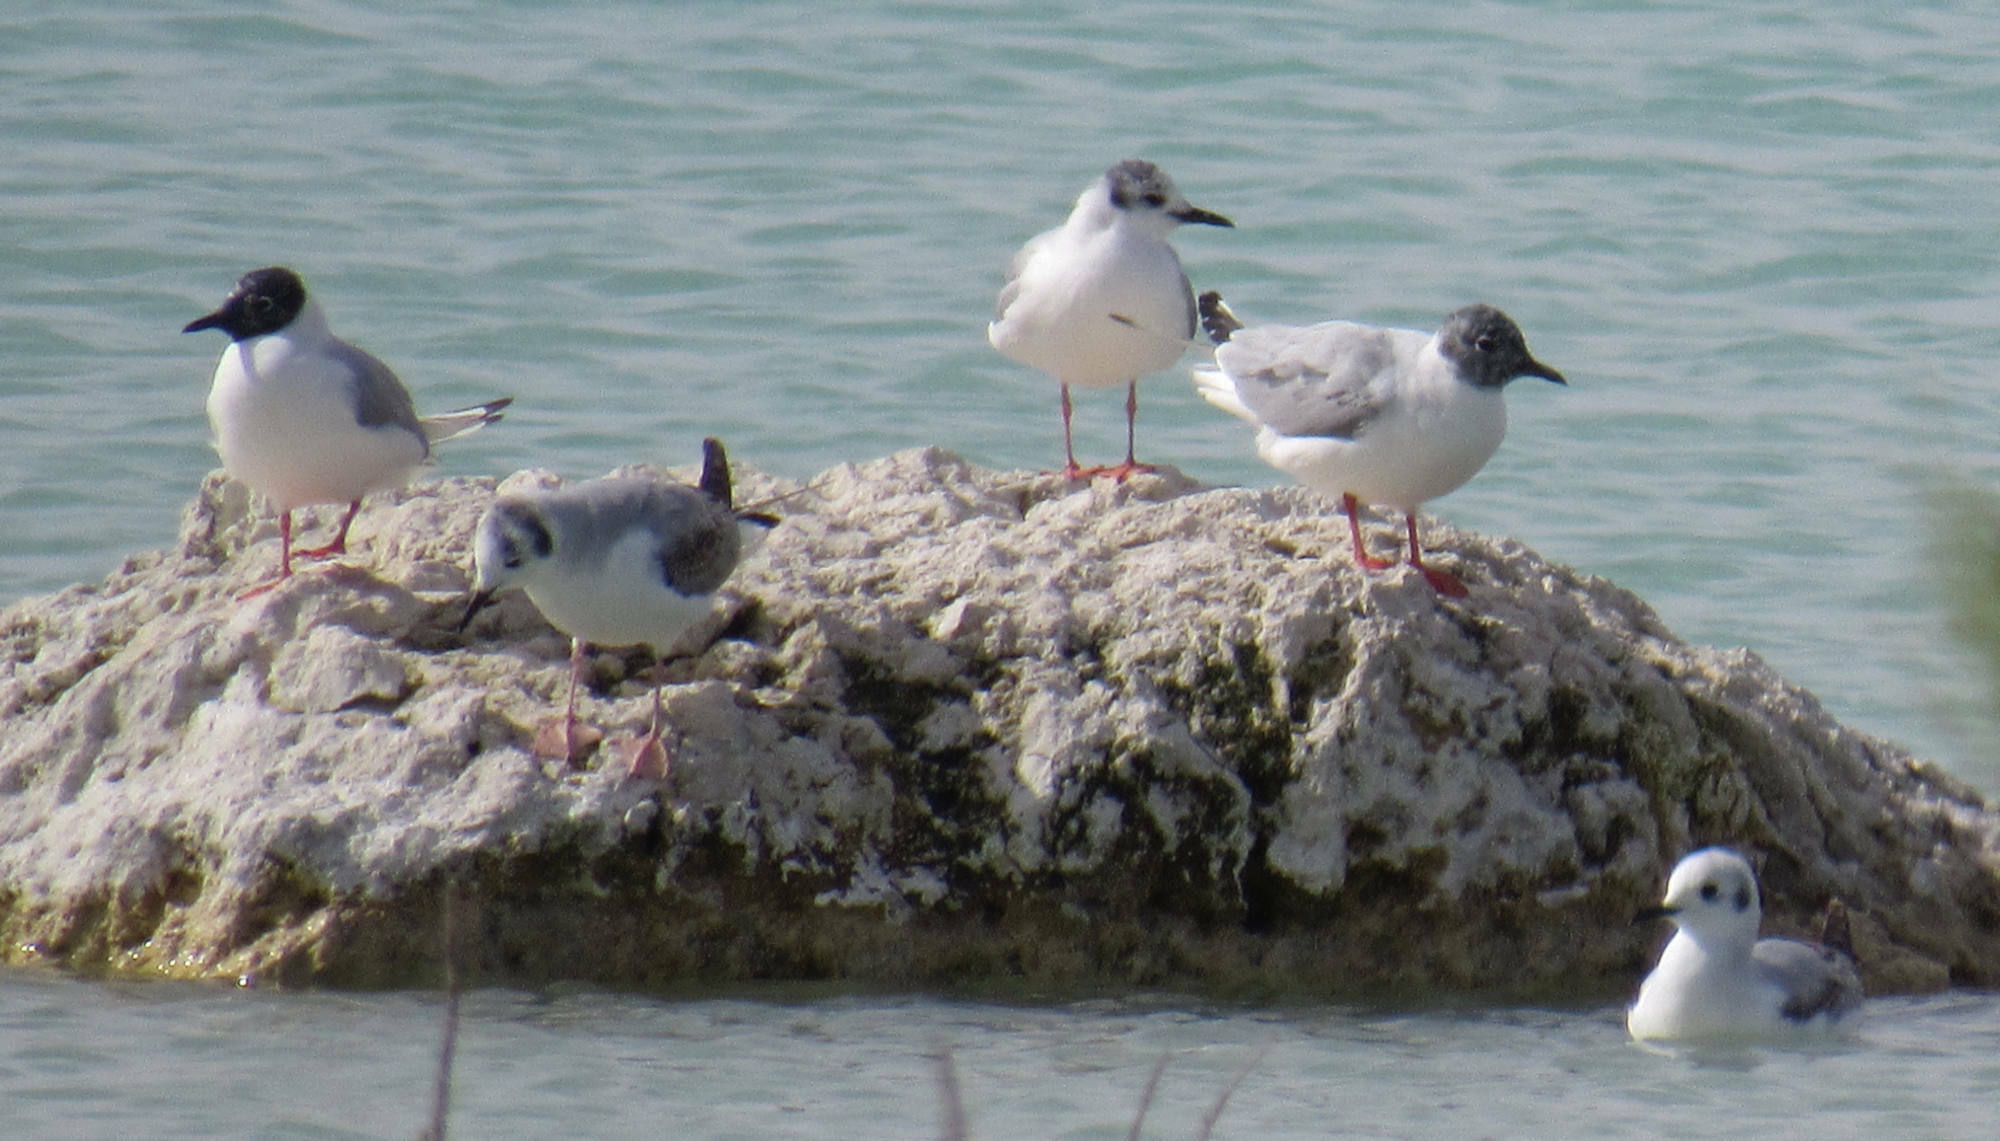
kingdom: Animalia
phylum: Chordata
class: Aves
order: Charadriiformes
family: Laridae
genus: Chroicocephalus
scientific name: Chroicocephalus philadelphia
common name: Bonaparte's gull
